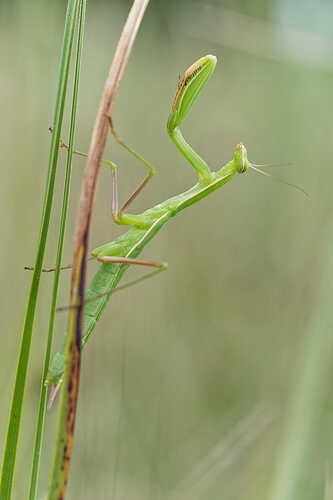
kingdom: Animalia
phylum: Arthropoda
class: Insecta
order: Mantodea
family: Mantidae
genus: Mantis
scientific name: Mantis religiosa
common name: Praying mantis
